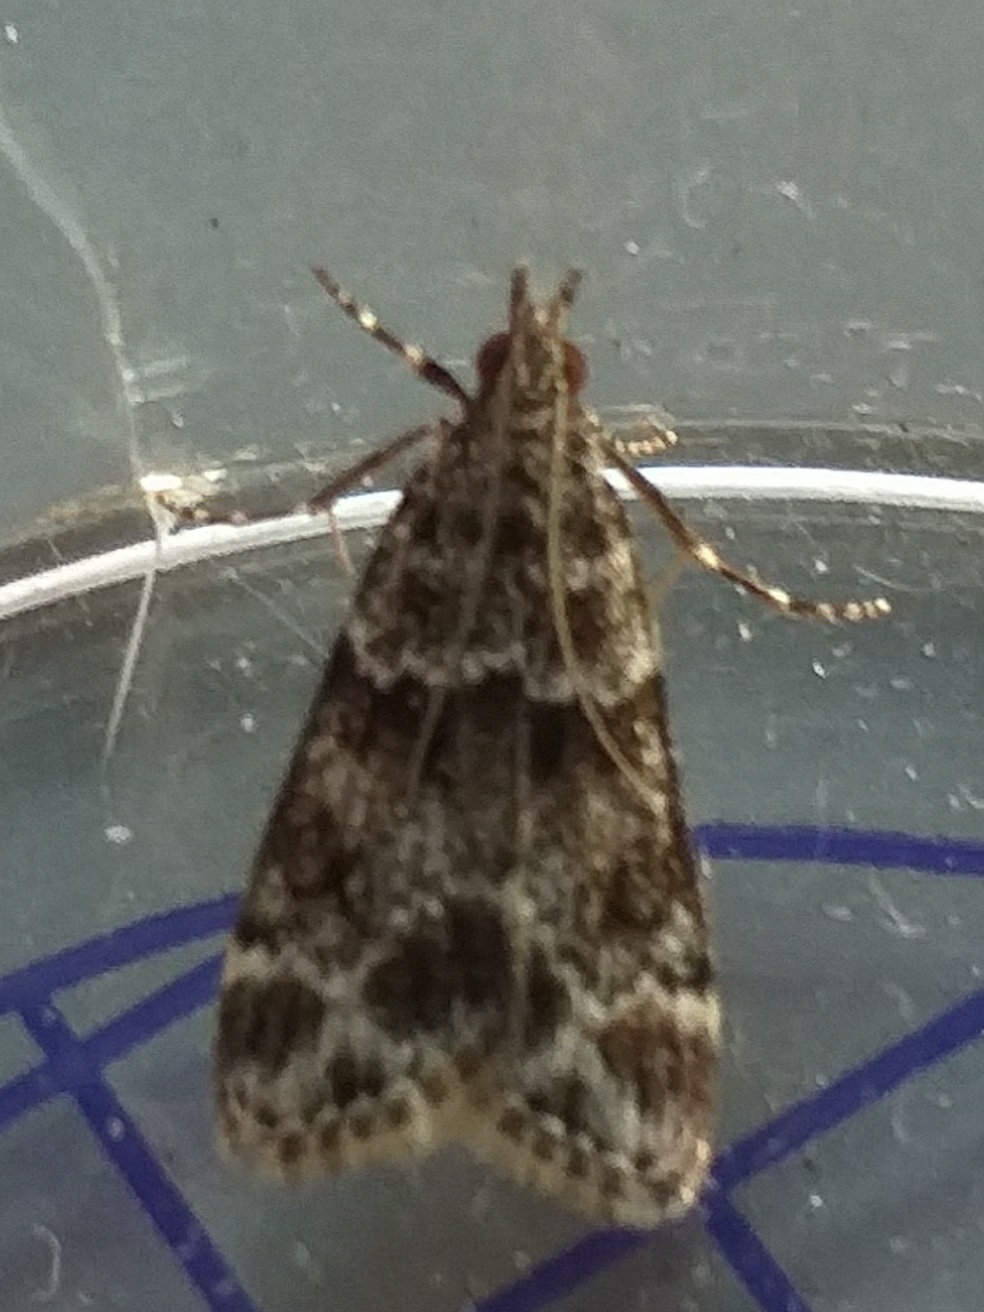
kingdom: Animalia
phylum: Arthropoda
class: Insecta
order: Lepidoptera
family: Crambidae
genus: Eudonia
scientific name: Eudonia mercurella
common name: Small grey
